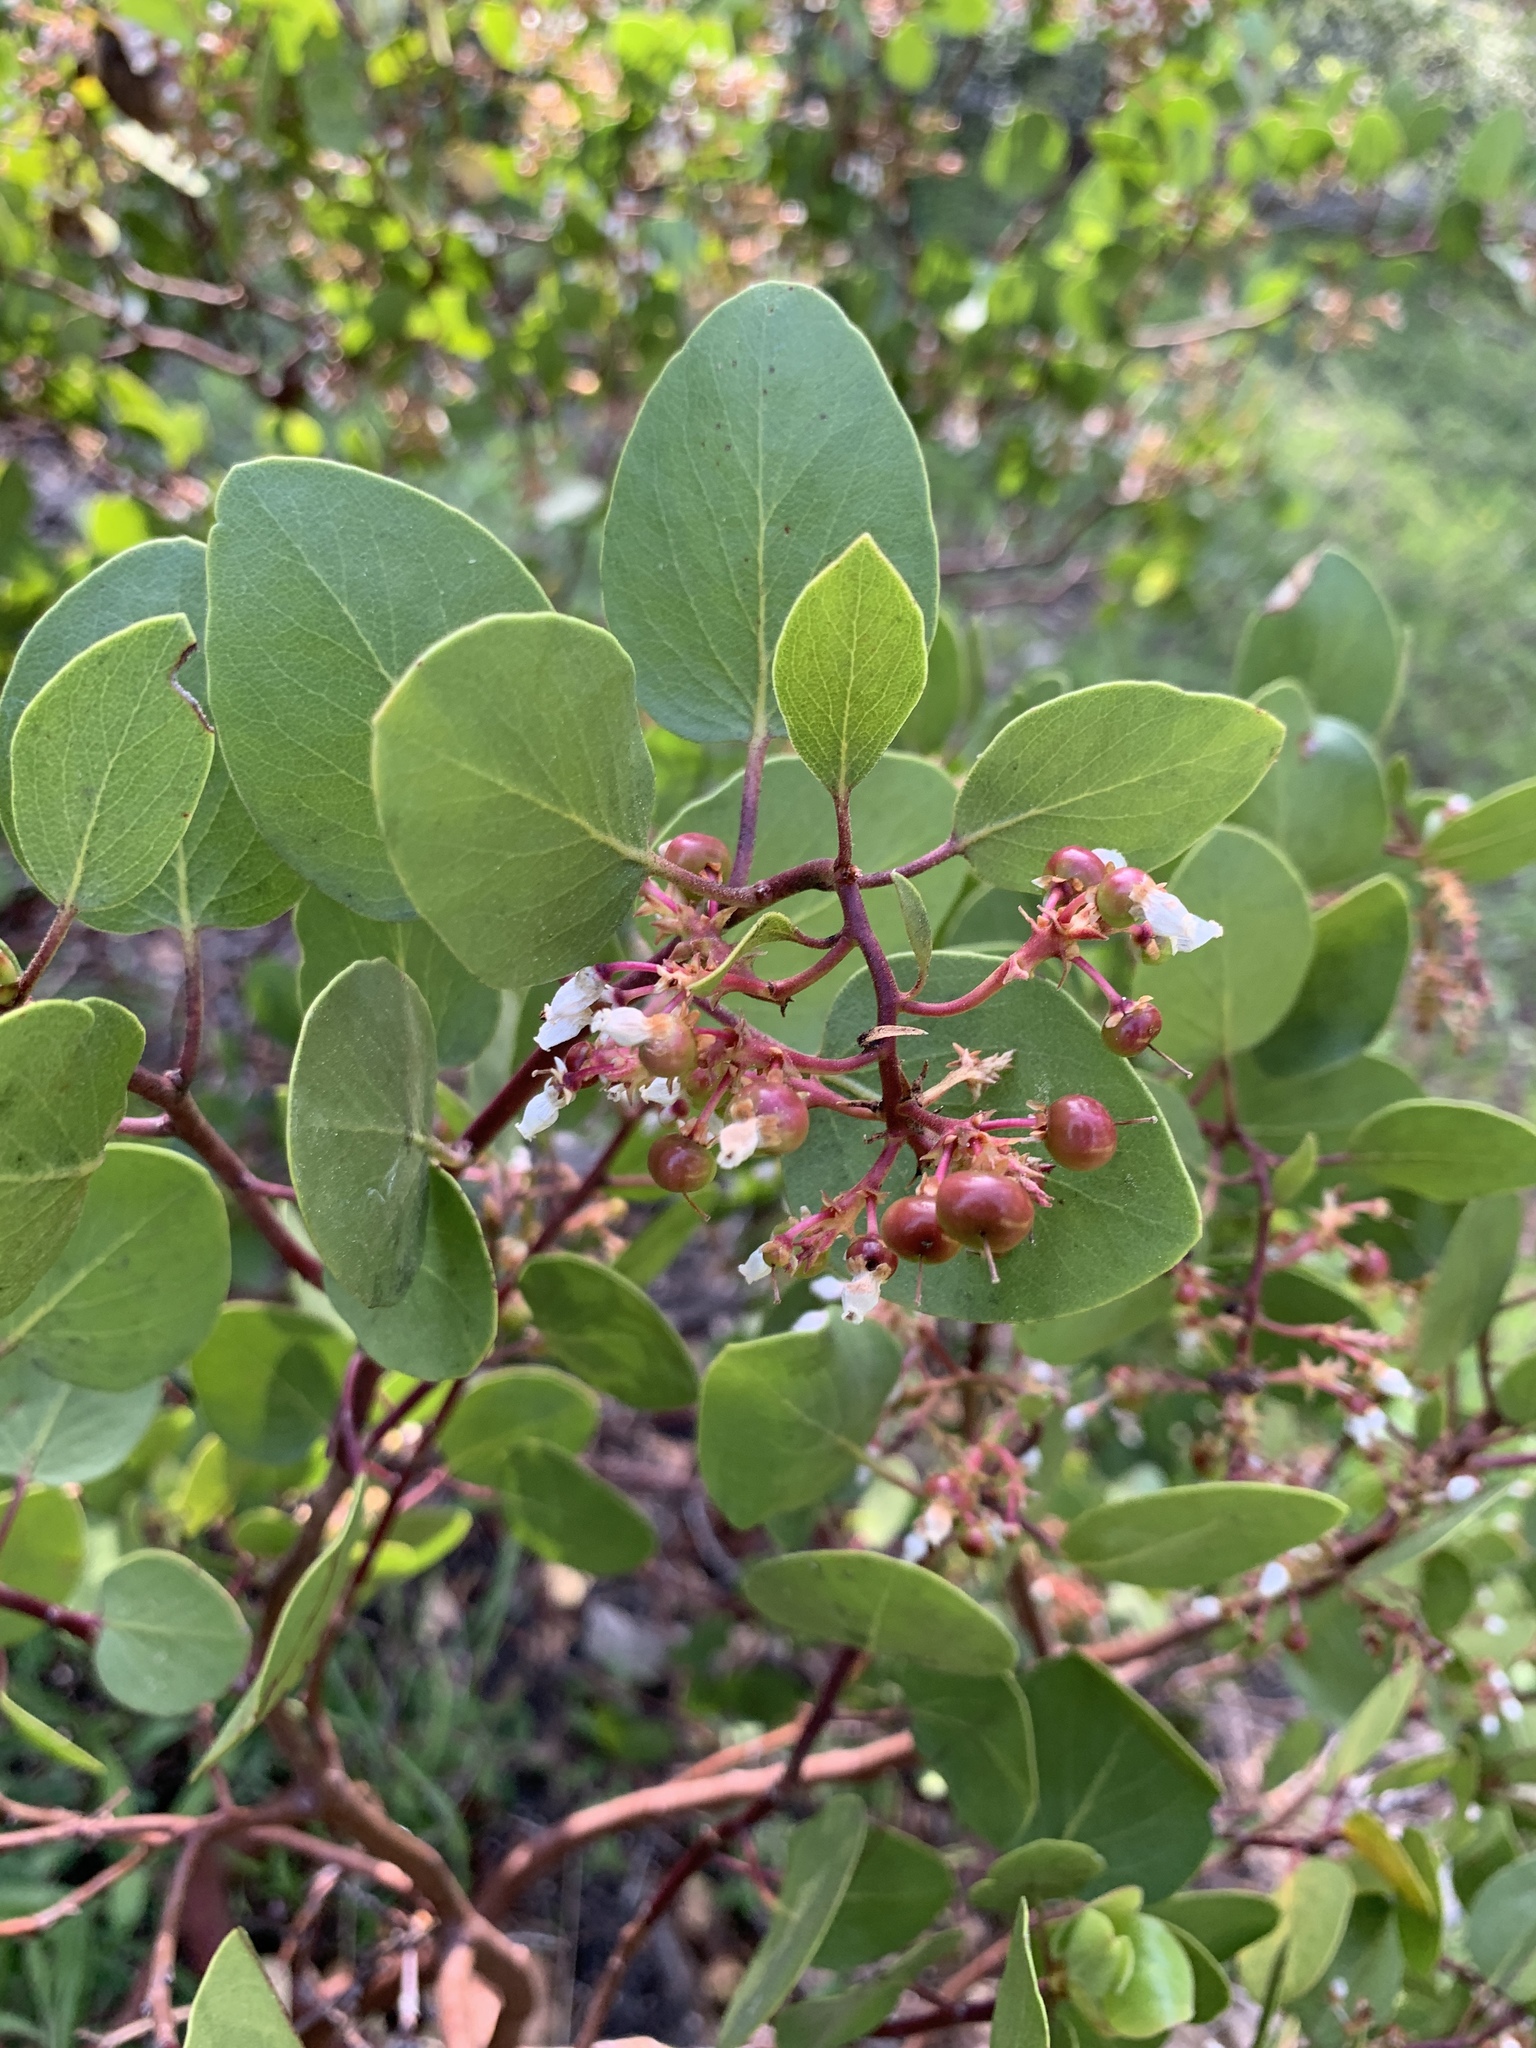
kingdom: Plantae
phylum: Tracheophyta
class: Magnoliopsida
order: Ericales
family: Ericaceae
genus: Arctostaphylos
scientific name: Arctostaphylos patula
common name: Green-leaf manzanita
